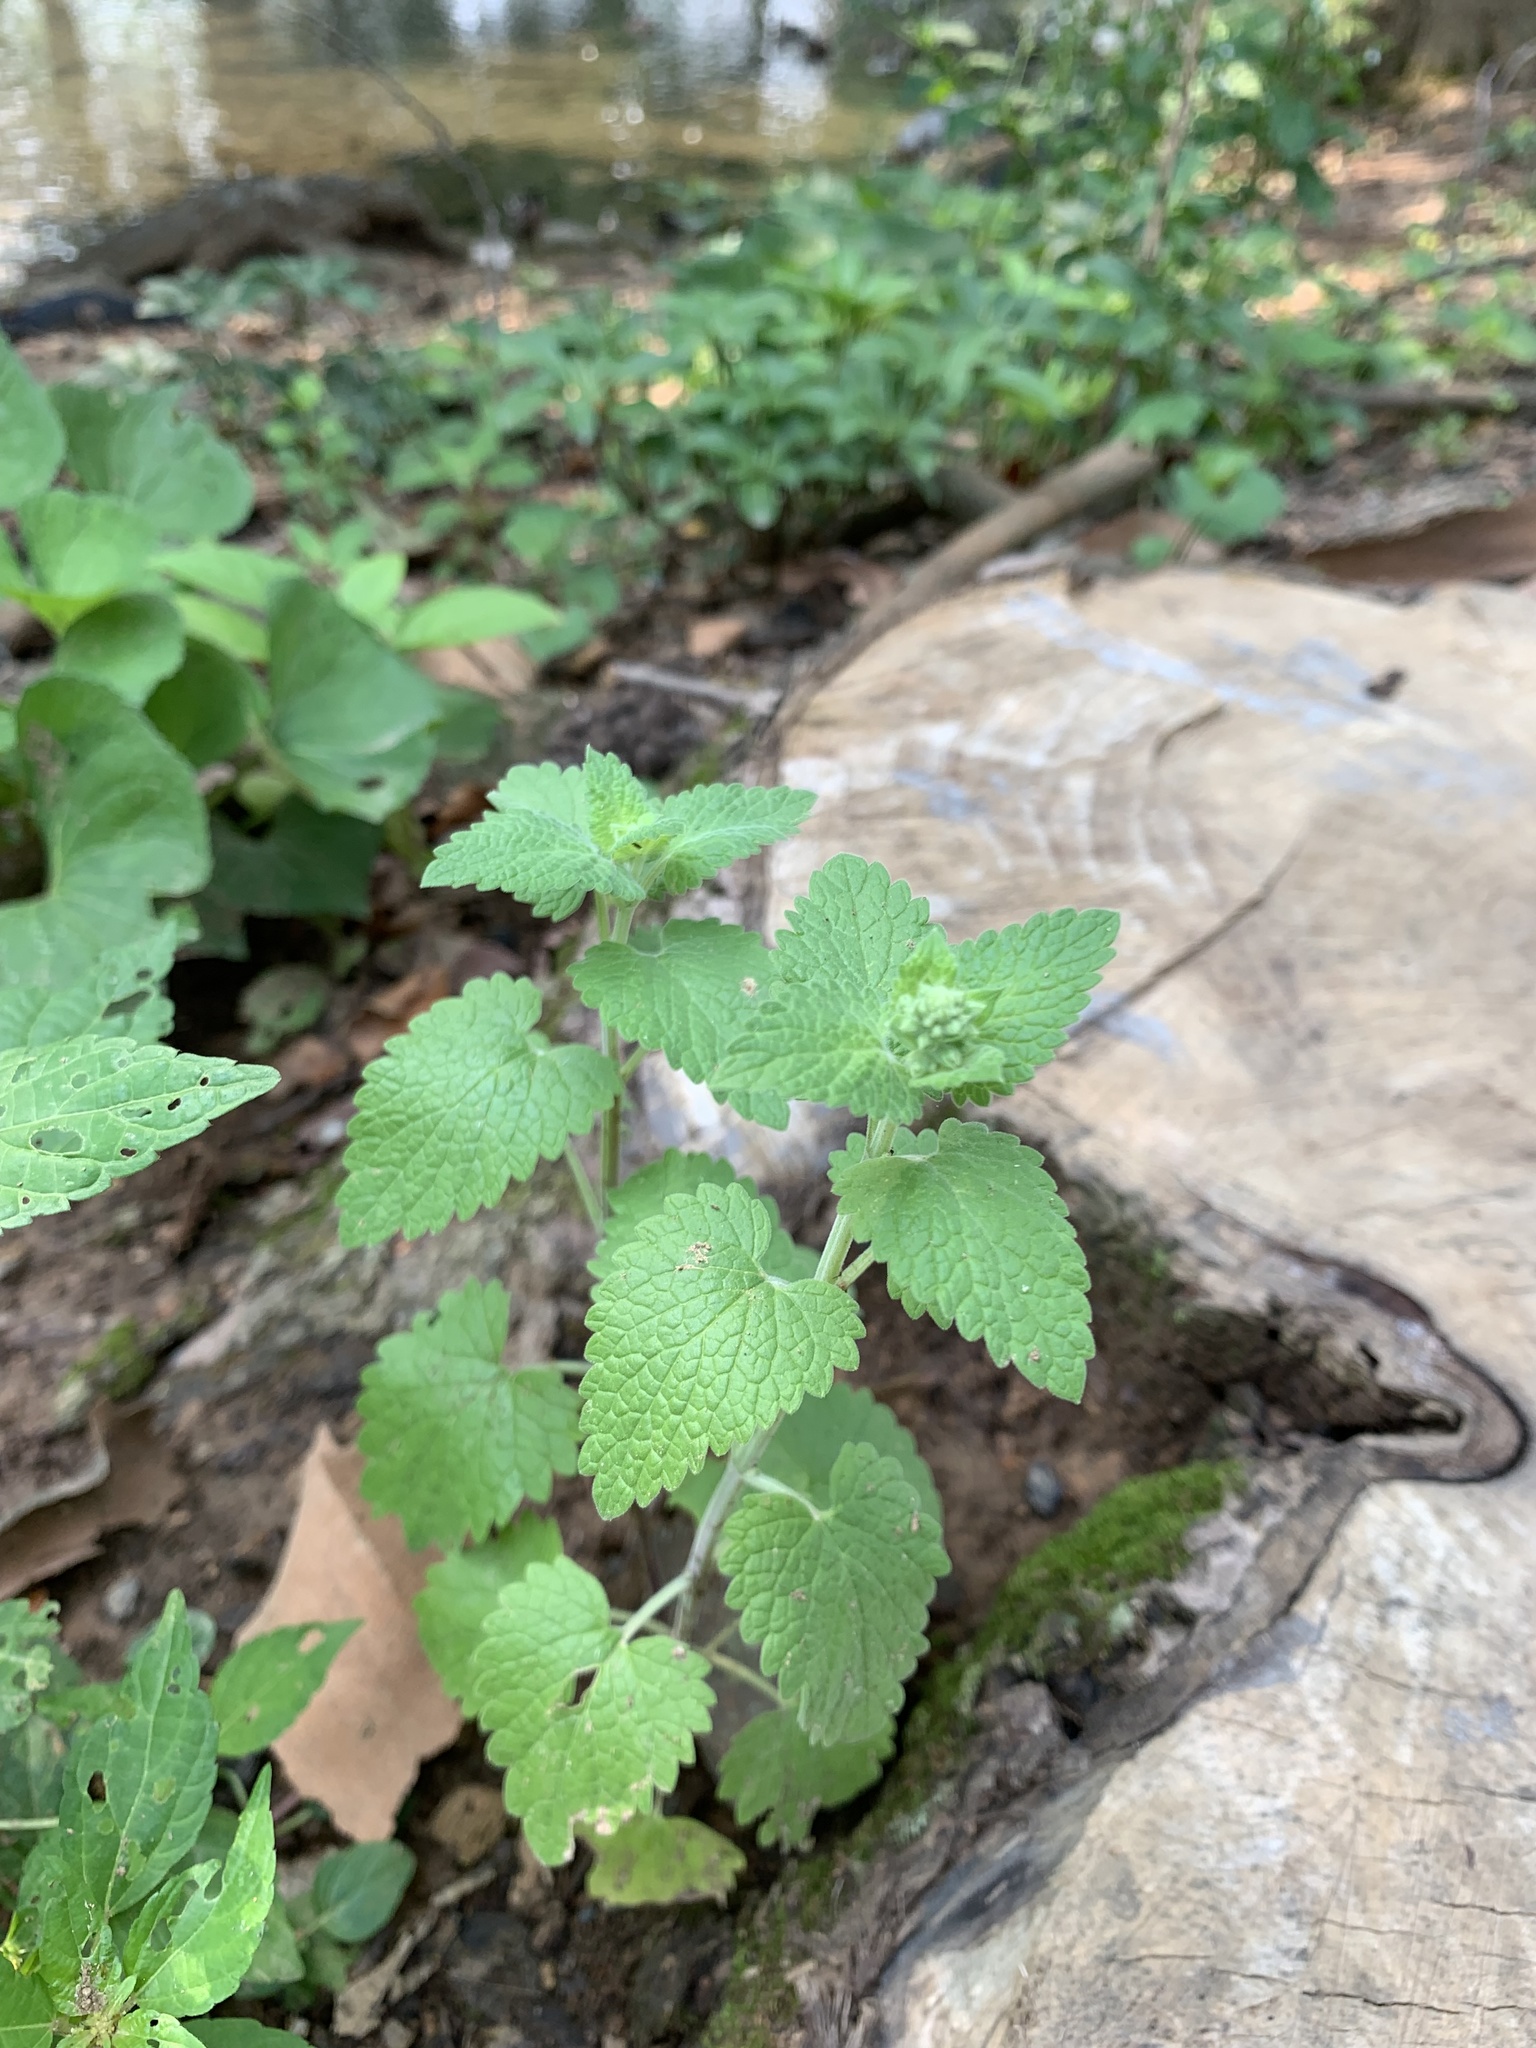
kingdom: Plantae
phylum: Tracheophyta
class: Magnoliopsida
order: Lamiales
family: Lamiaceae
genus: Nepeta
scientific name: Nepeta cataria
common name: Catnip
